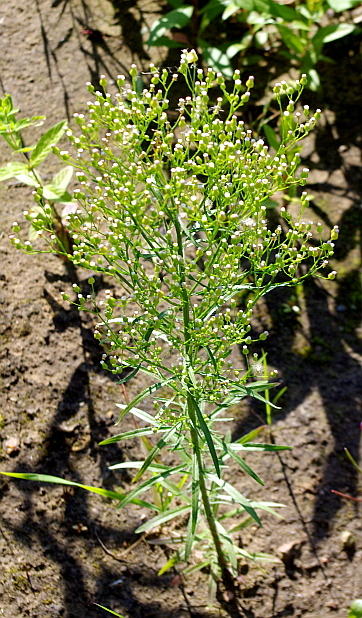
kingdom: Plantae
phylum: Tracheophyta
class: Magnoliopsida
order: Asterales
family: Asteraceae
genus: Erigeron
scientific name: Erigeron canadensis
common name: Canadian fleabane
